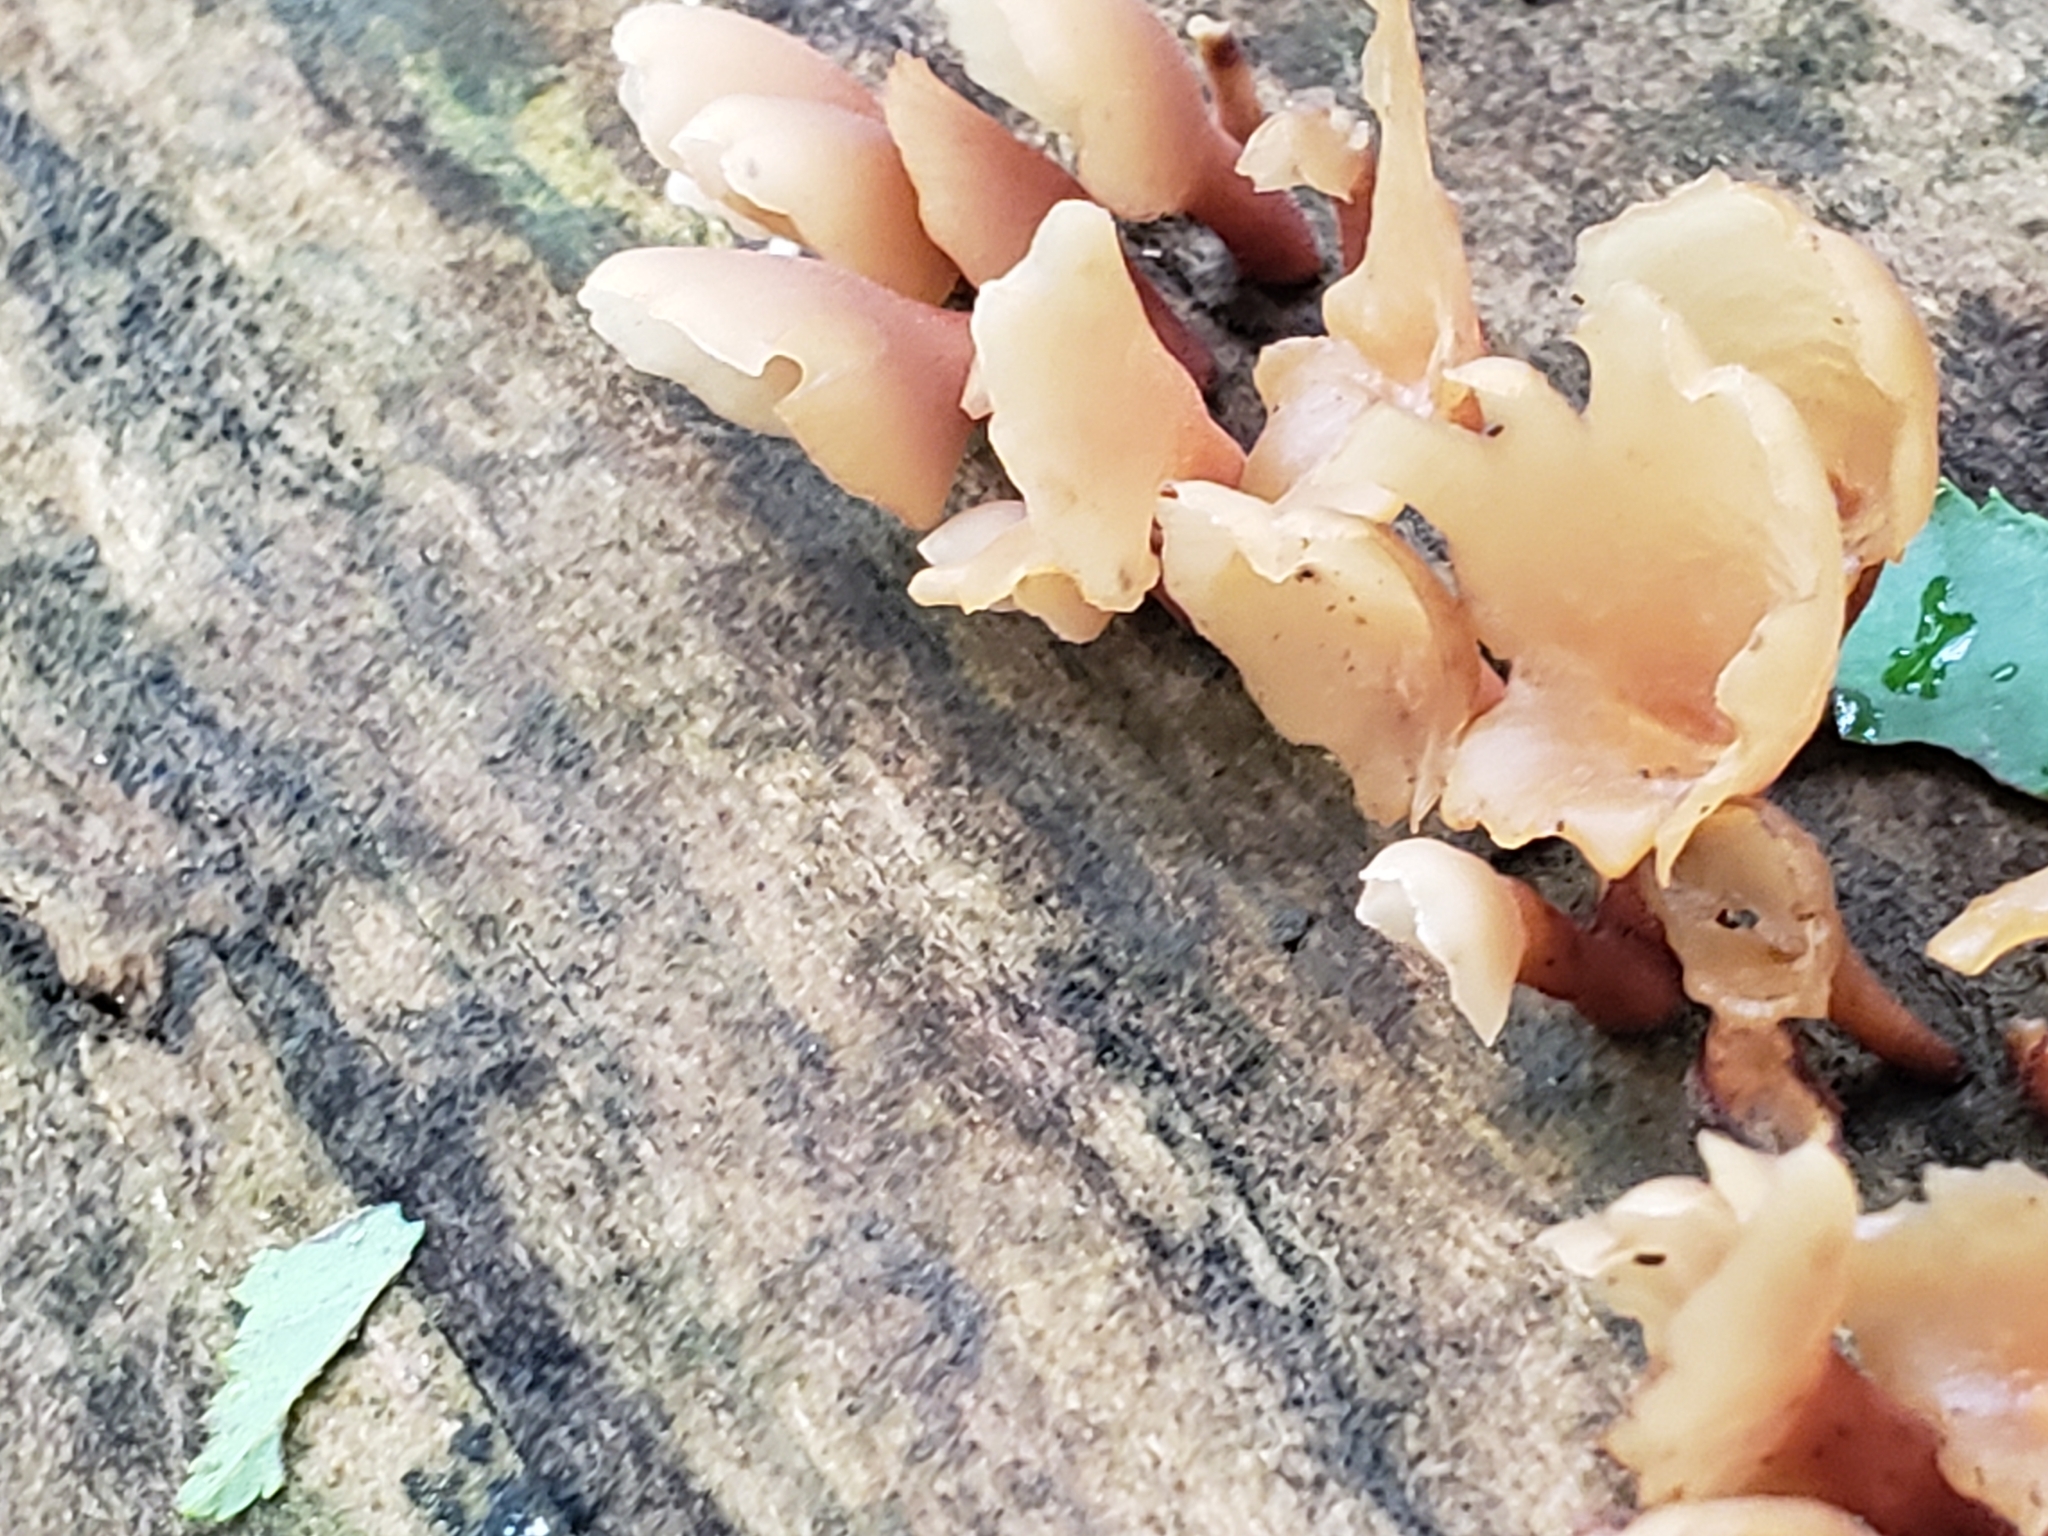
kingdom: Fungi
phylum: Basidiomycota
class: Dacrymycetes
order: Dacrymycetales
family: Dacrymycetaceae
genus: Dacryopinax
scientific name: Dacryopinax elegans
